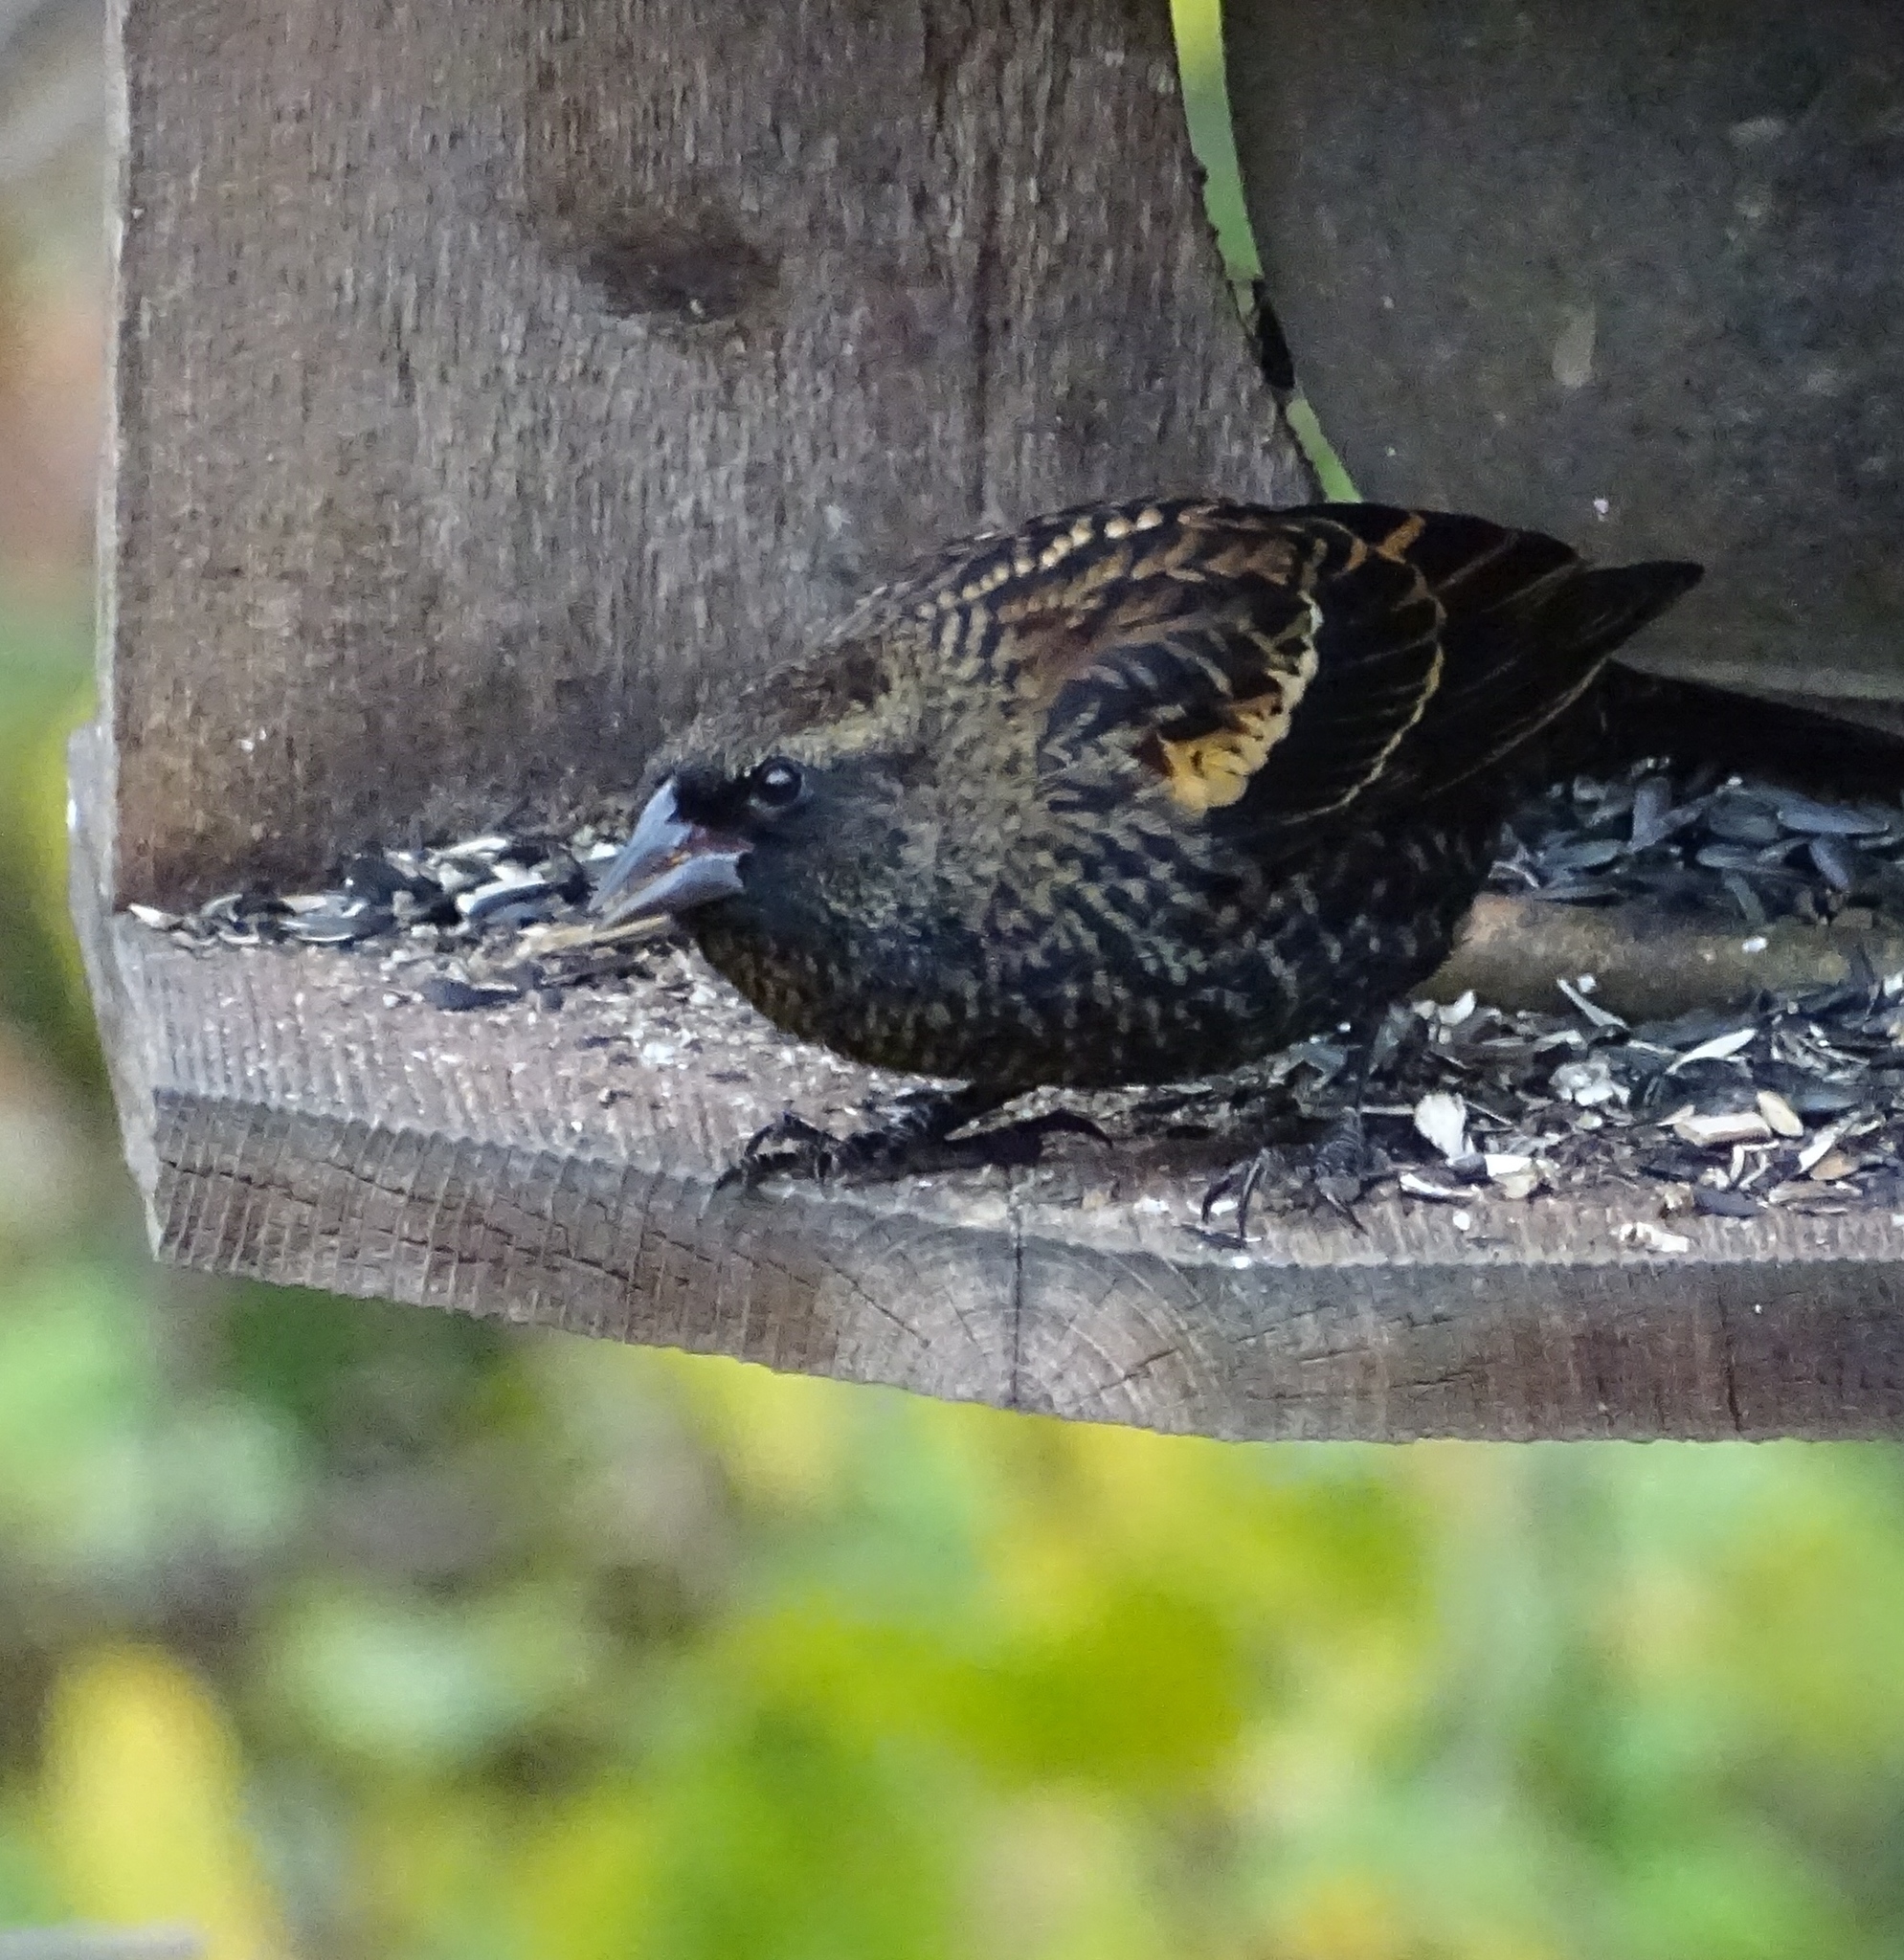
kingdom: Animalia
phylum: Chordata
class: Aves
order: Passeriformes
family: Icteridae
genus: Agelaius
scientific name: Agelaius phoeniceus
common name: Red-winged blackbird
